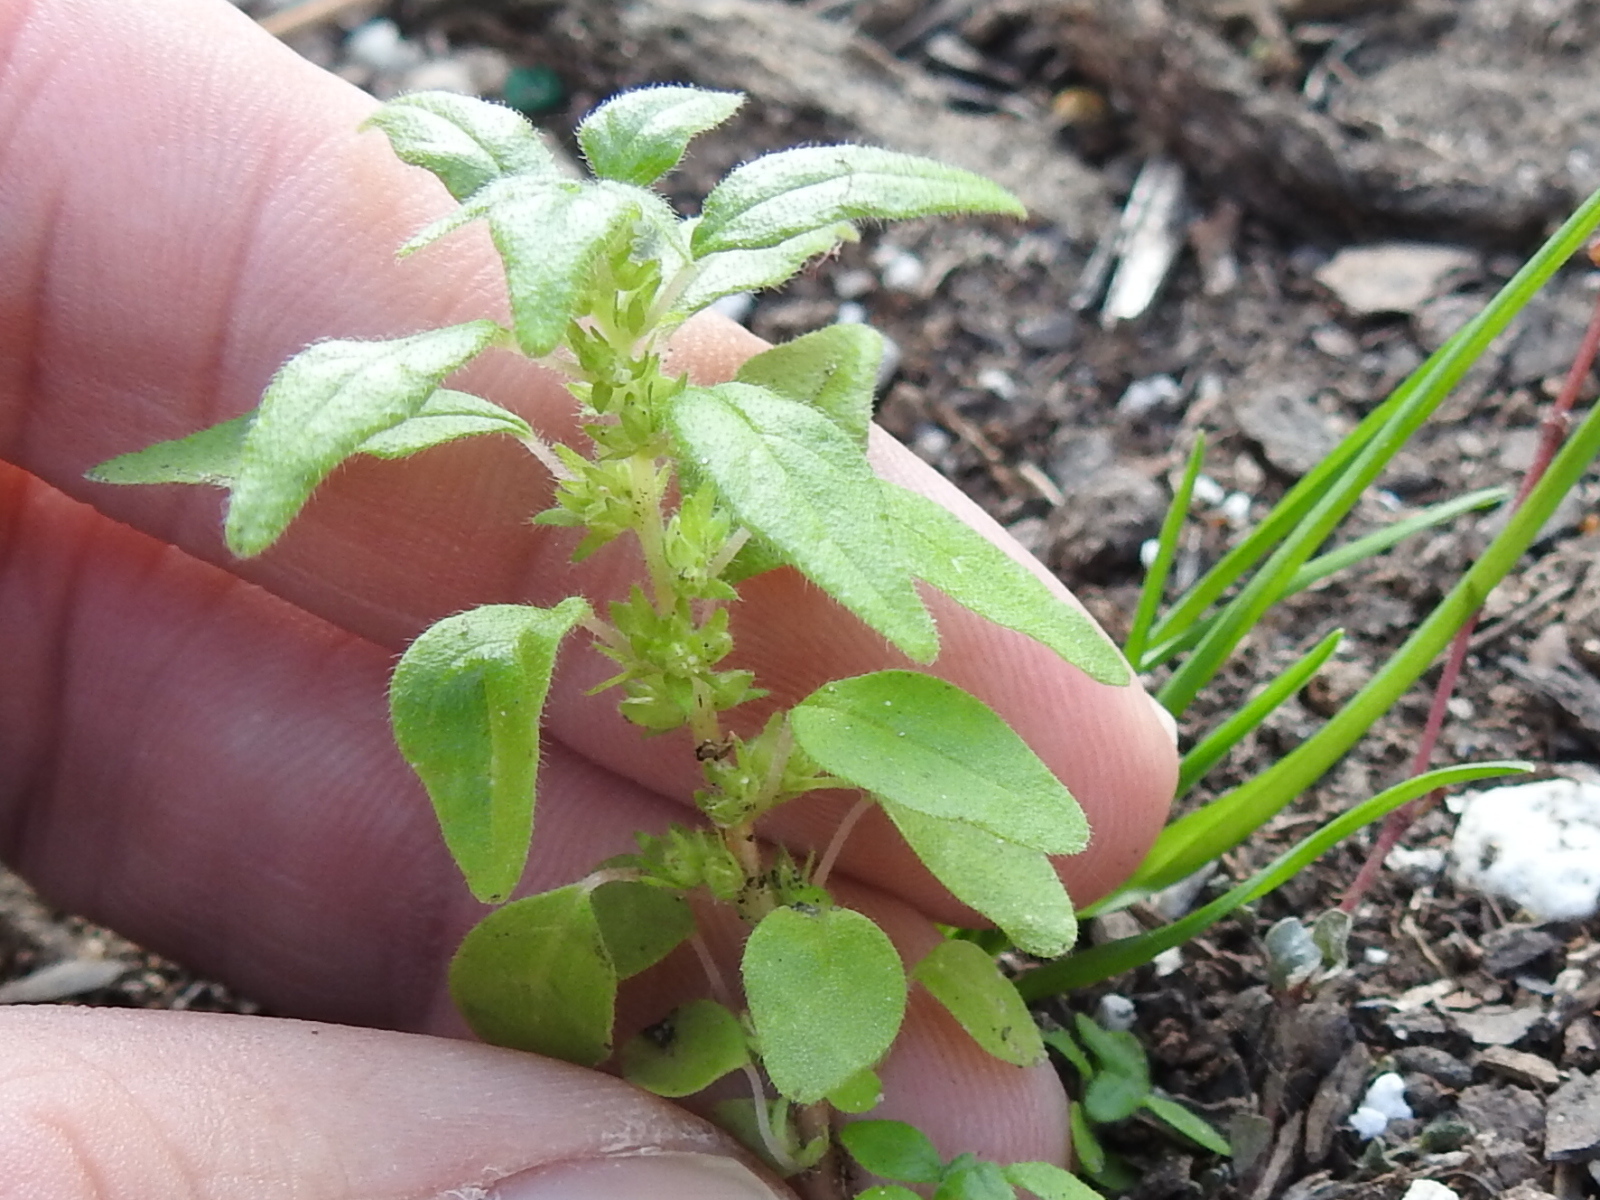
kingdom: Plantae
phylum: Tracheophyta
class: Magnoliopsida
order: Rosales
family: Urticaceae
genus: Parietaria
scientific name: Parietaria pensylvanica
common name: Pennsylvania pellitory
